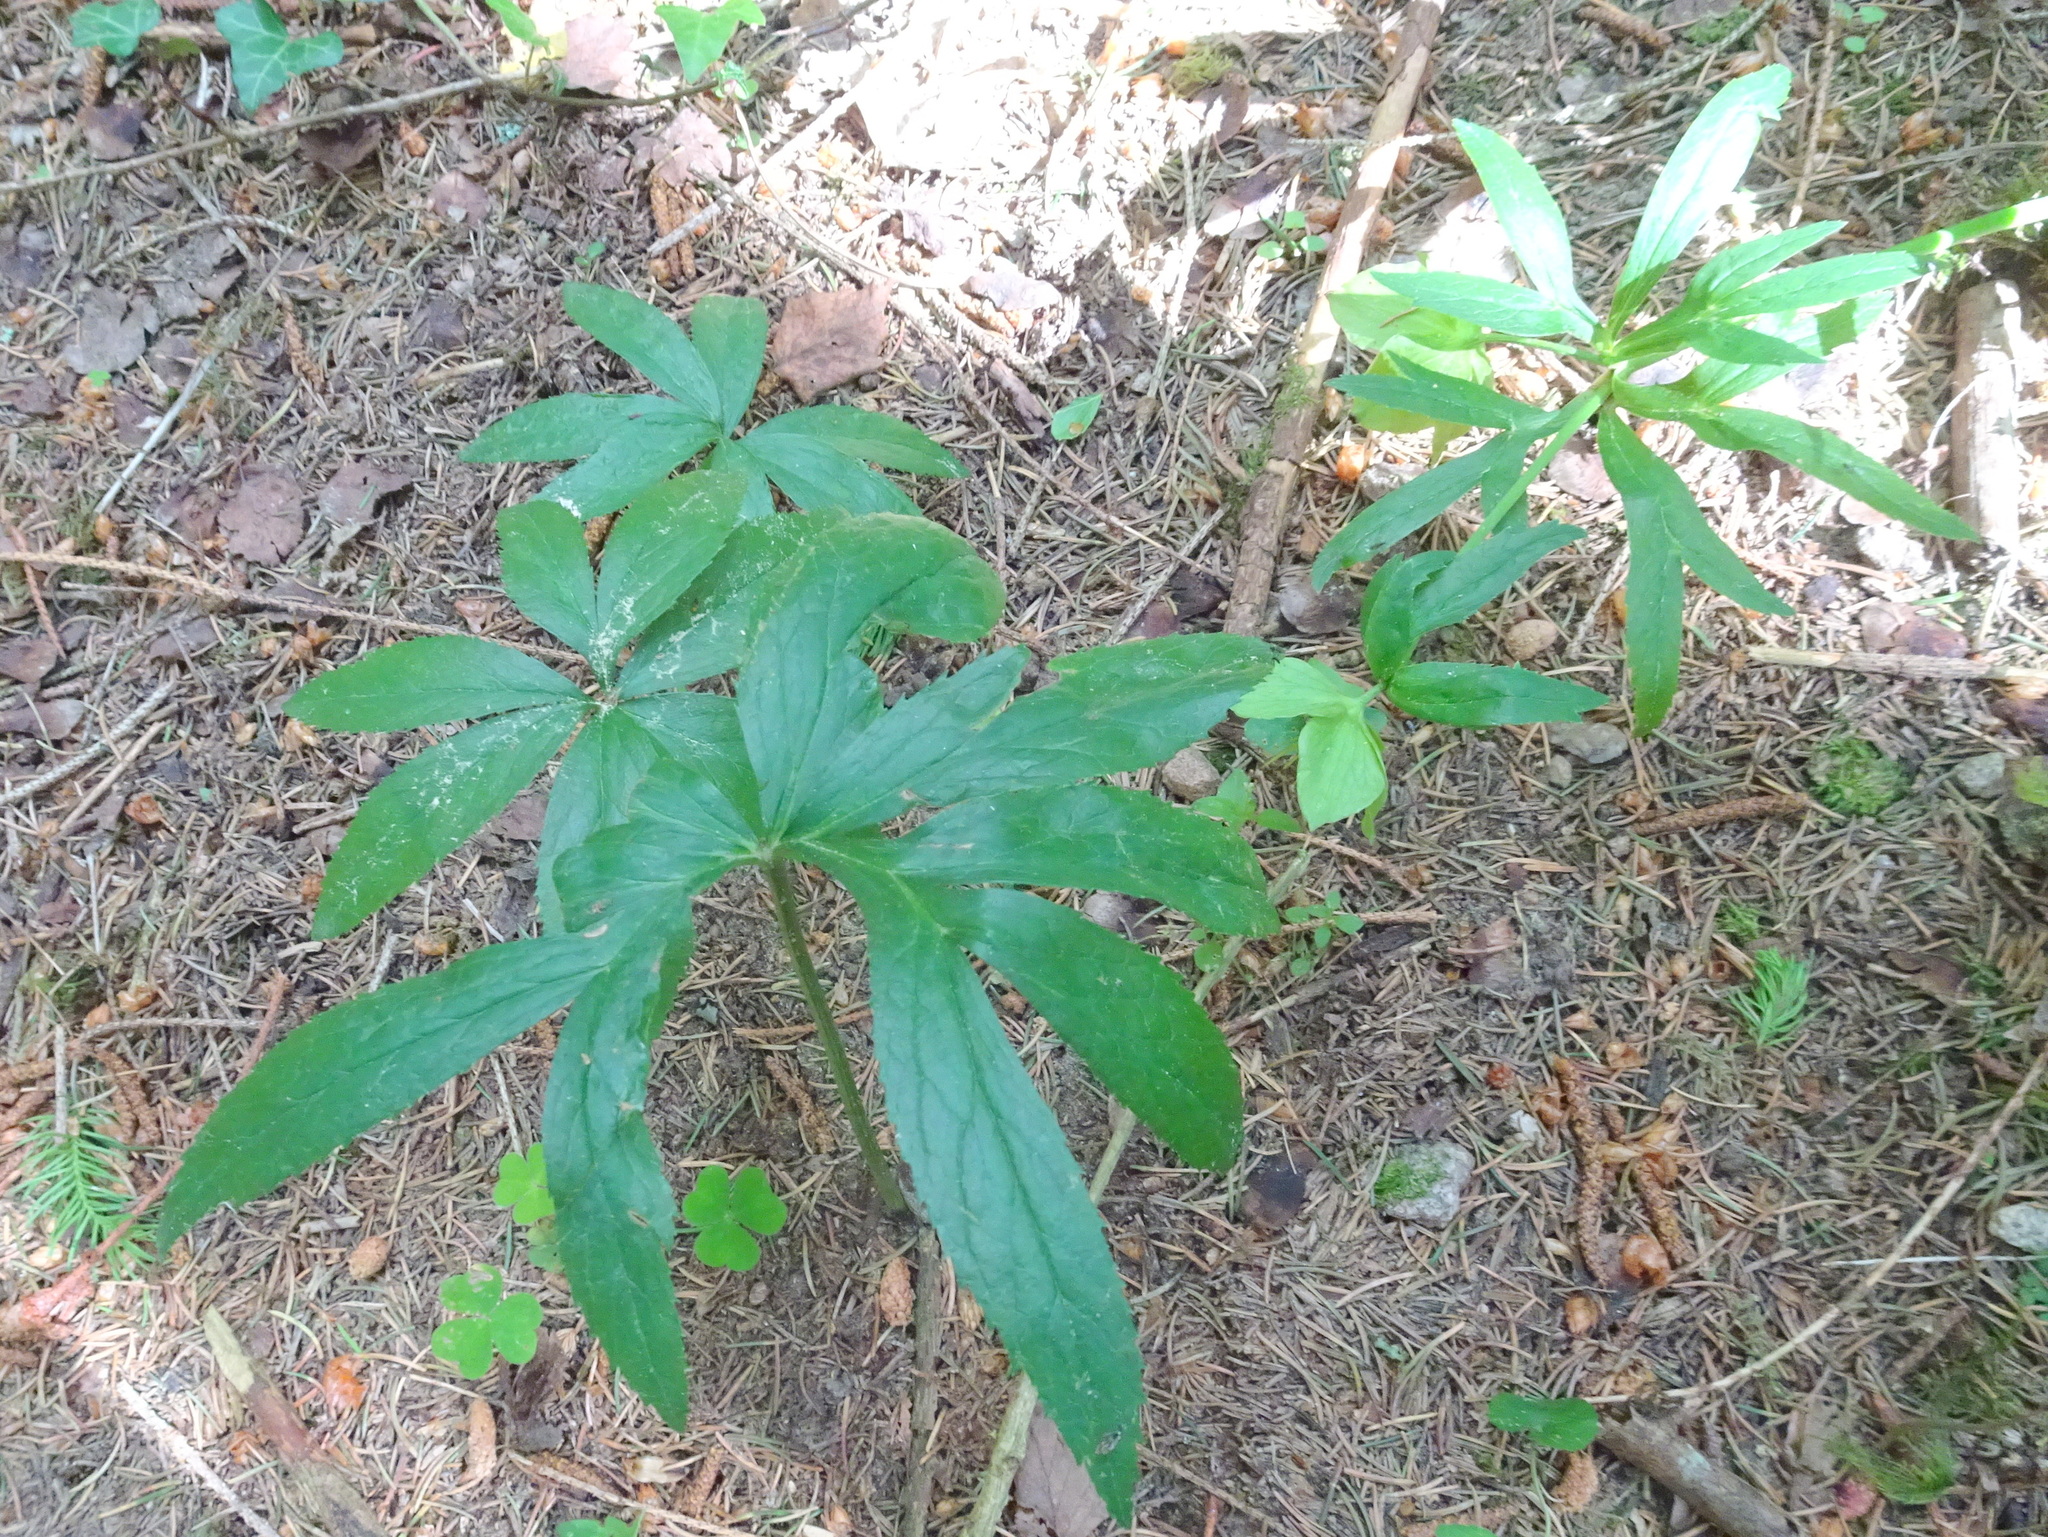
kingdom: Plantae
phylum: Tracheophyta
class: Magnoliopsida
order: Ranunculales
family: Ranunculaceae
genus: Helleborus
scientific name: Helleborus viridis
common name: Green hellebore
